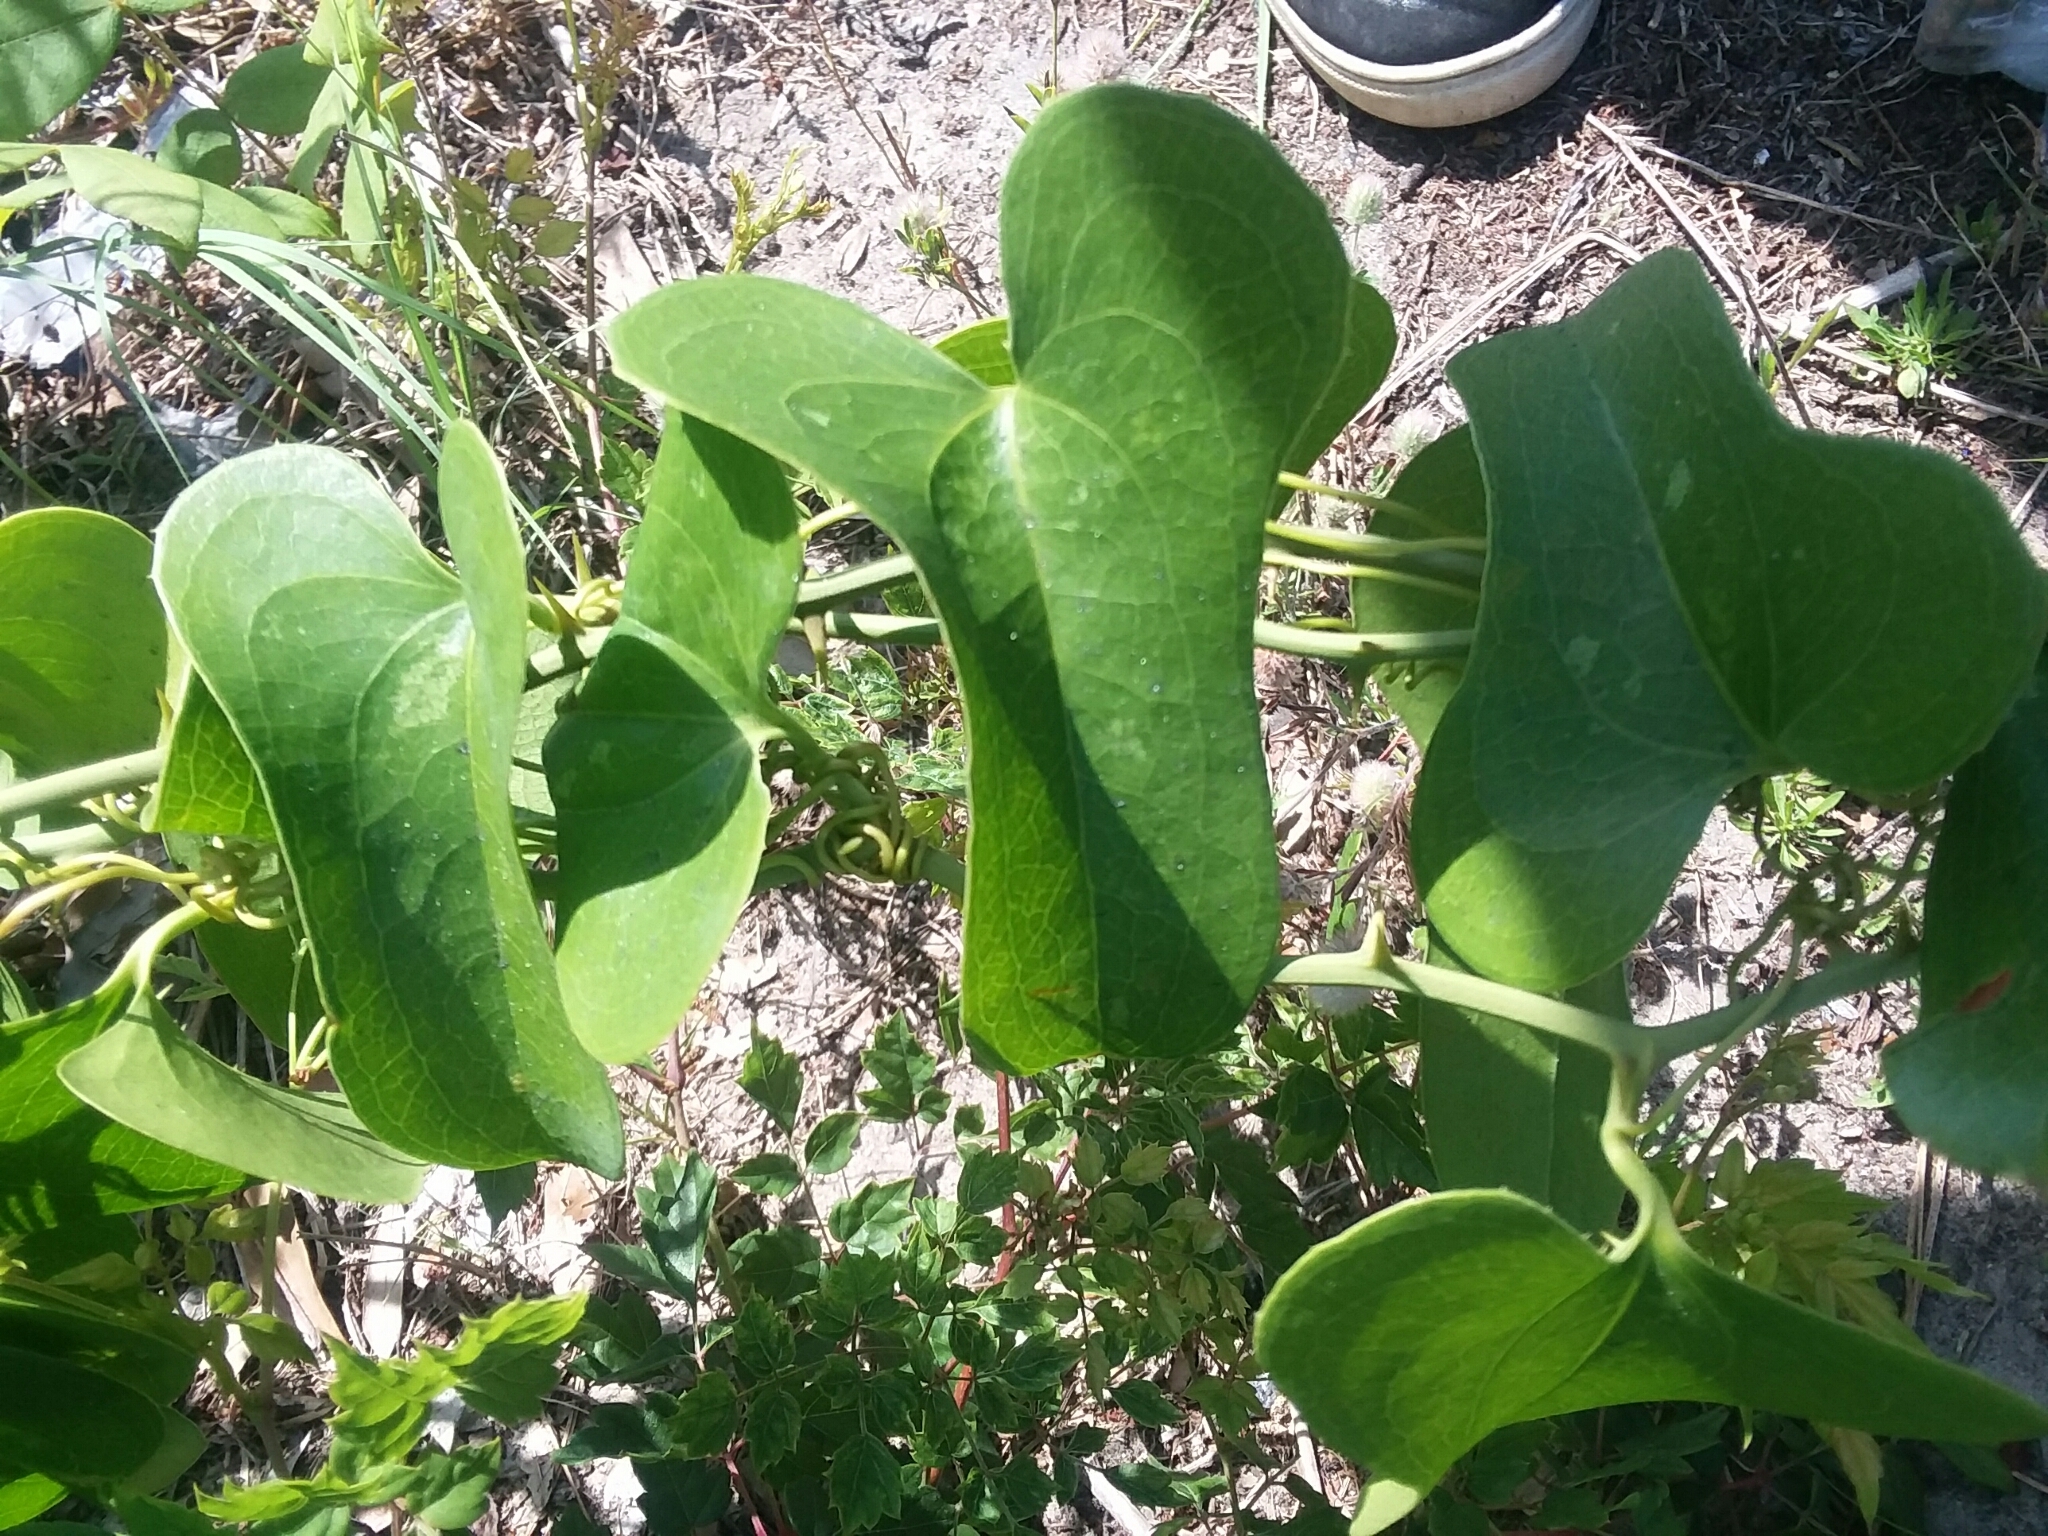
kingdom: Plantae
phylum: Tracheophyta
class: Liliopsida
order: Liliales
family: Smilacaceae
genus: Smilax
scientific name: Smilax bona-nox
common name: Catbrier
